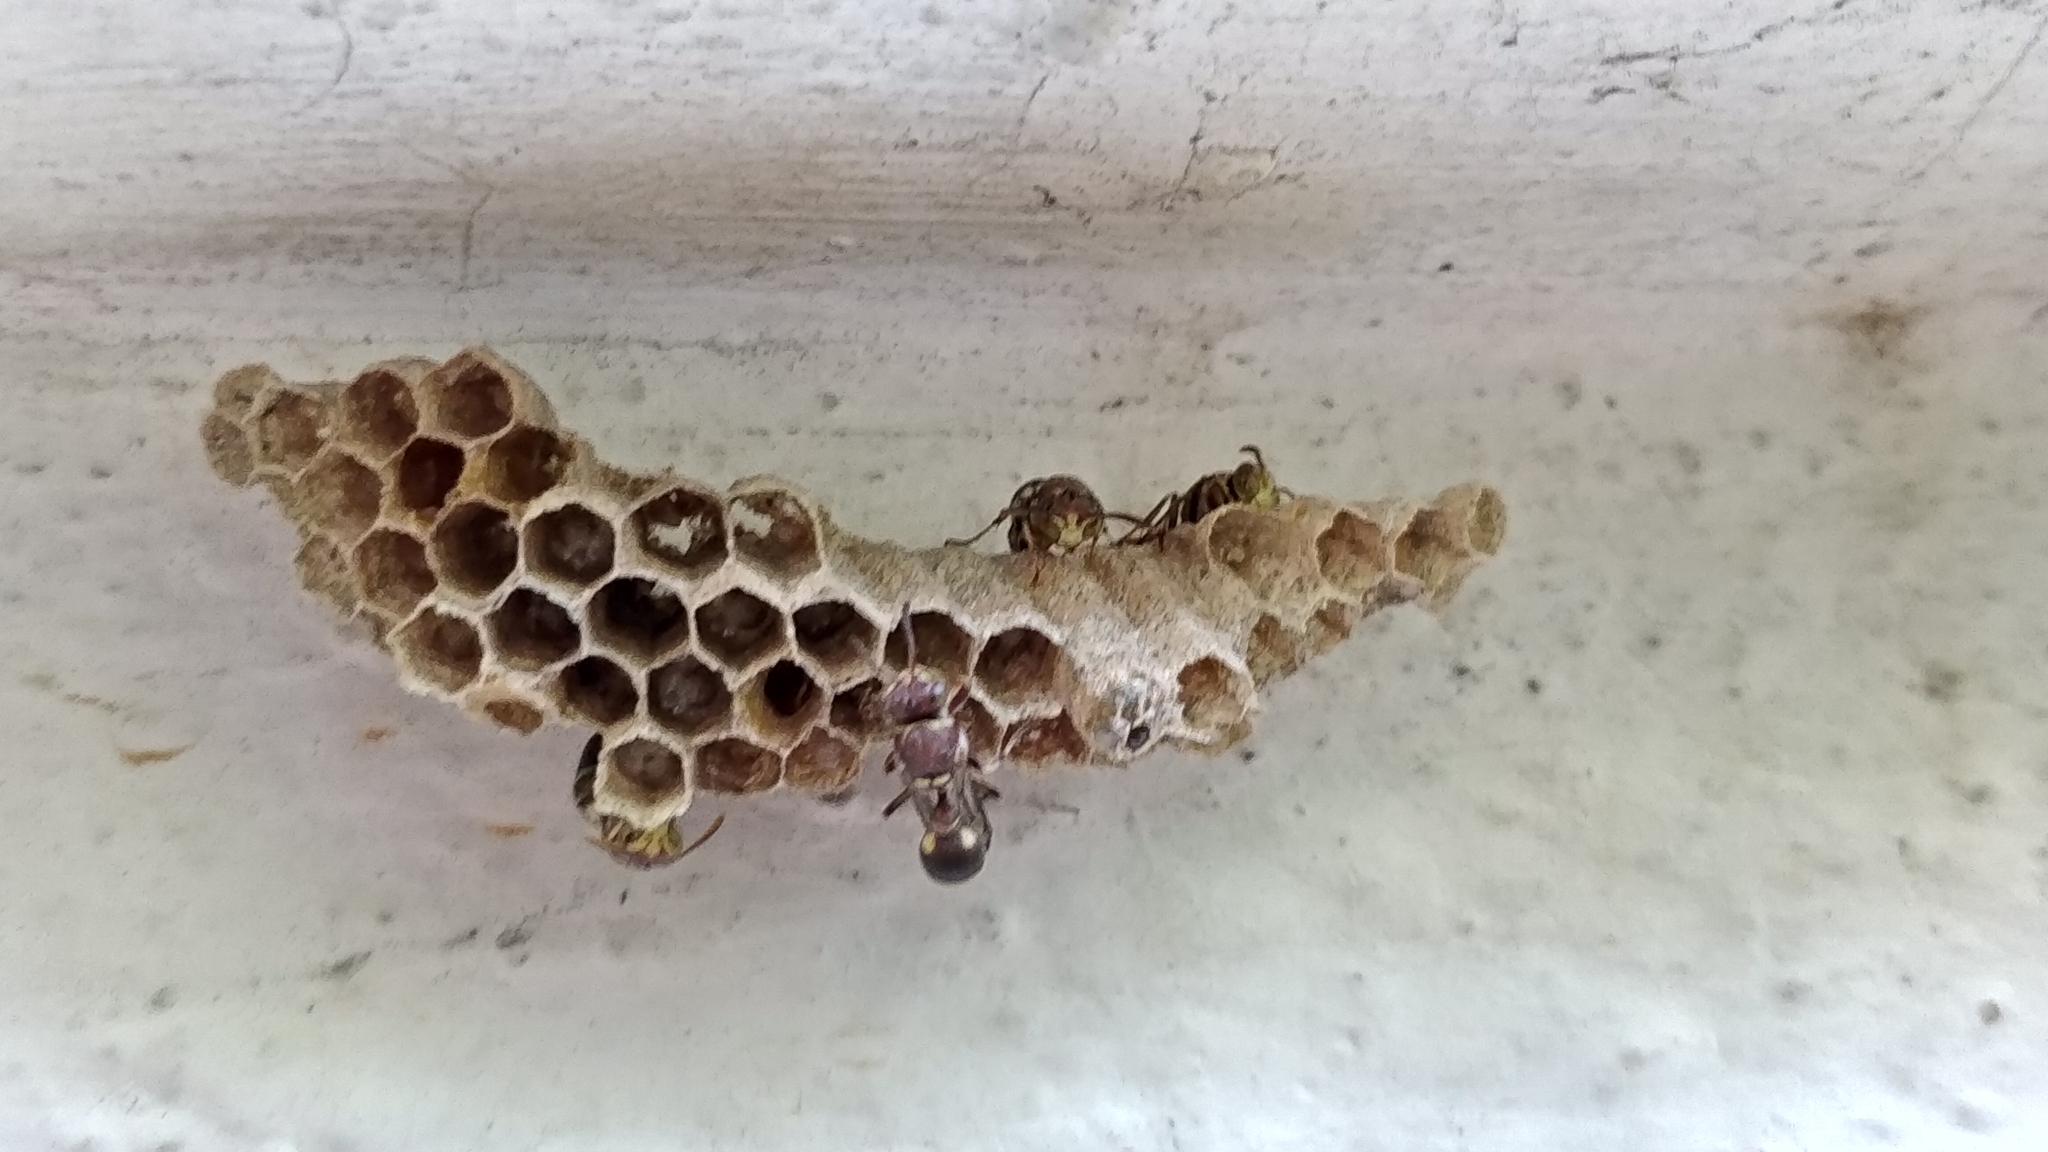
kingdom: Animalia
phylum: Arthropoda
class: Insecta
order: Hymenoptera
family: Vespidae
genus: Ropalidia
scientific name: Ropalidia cyathiformis
